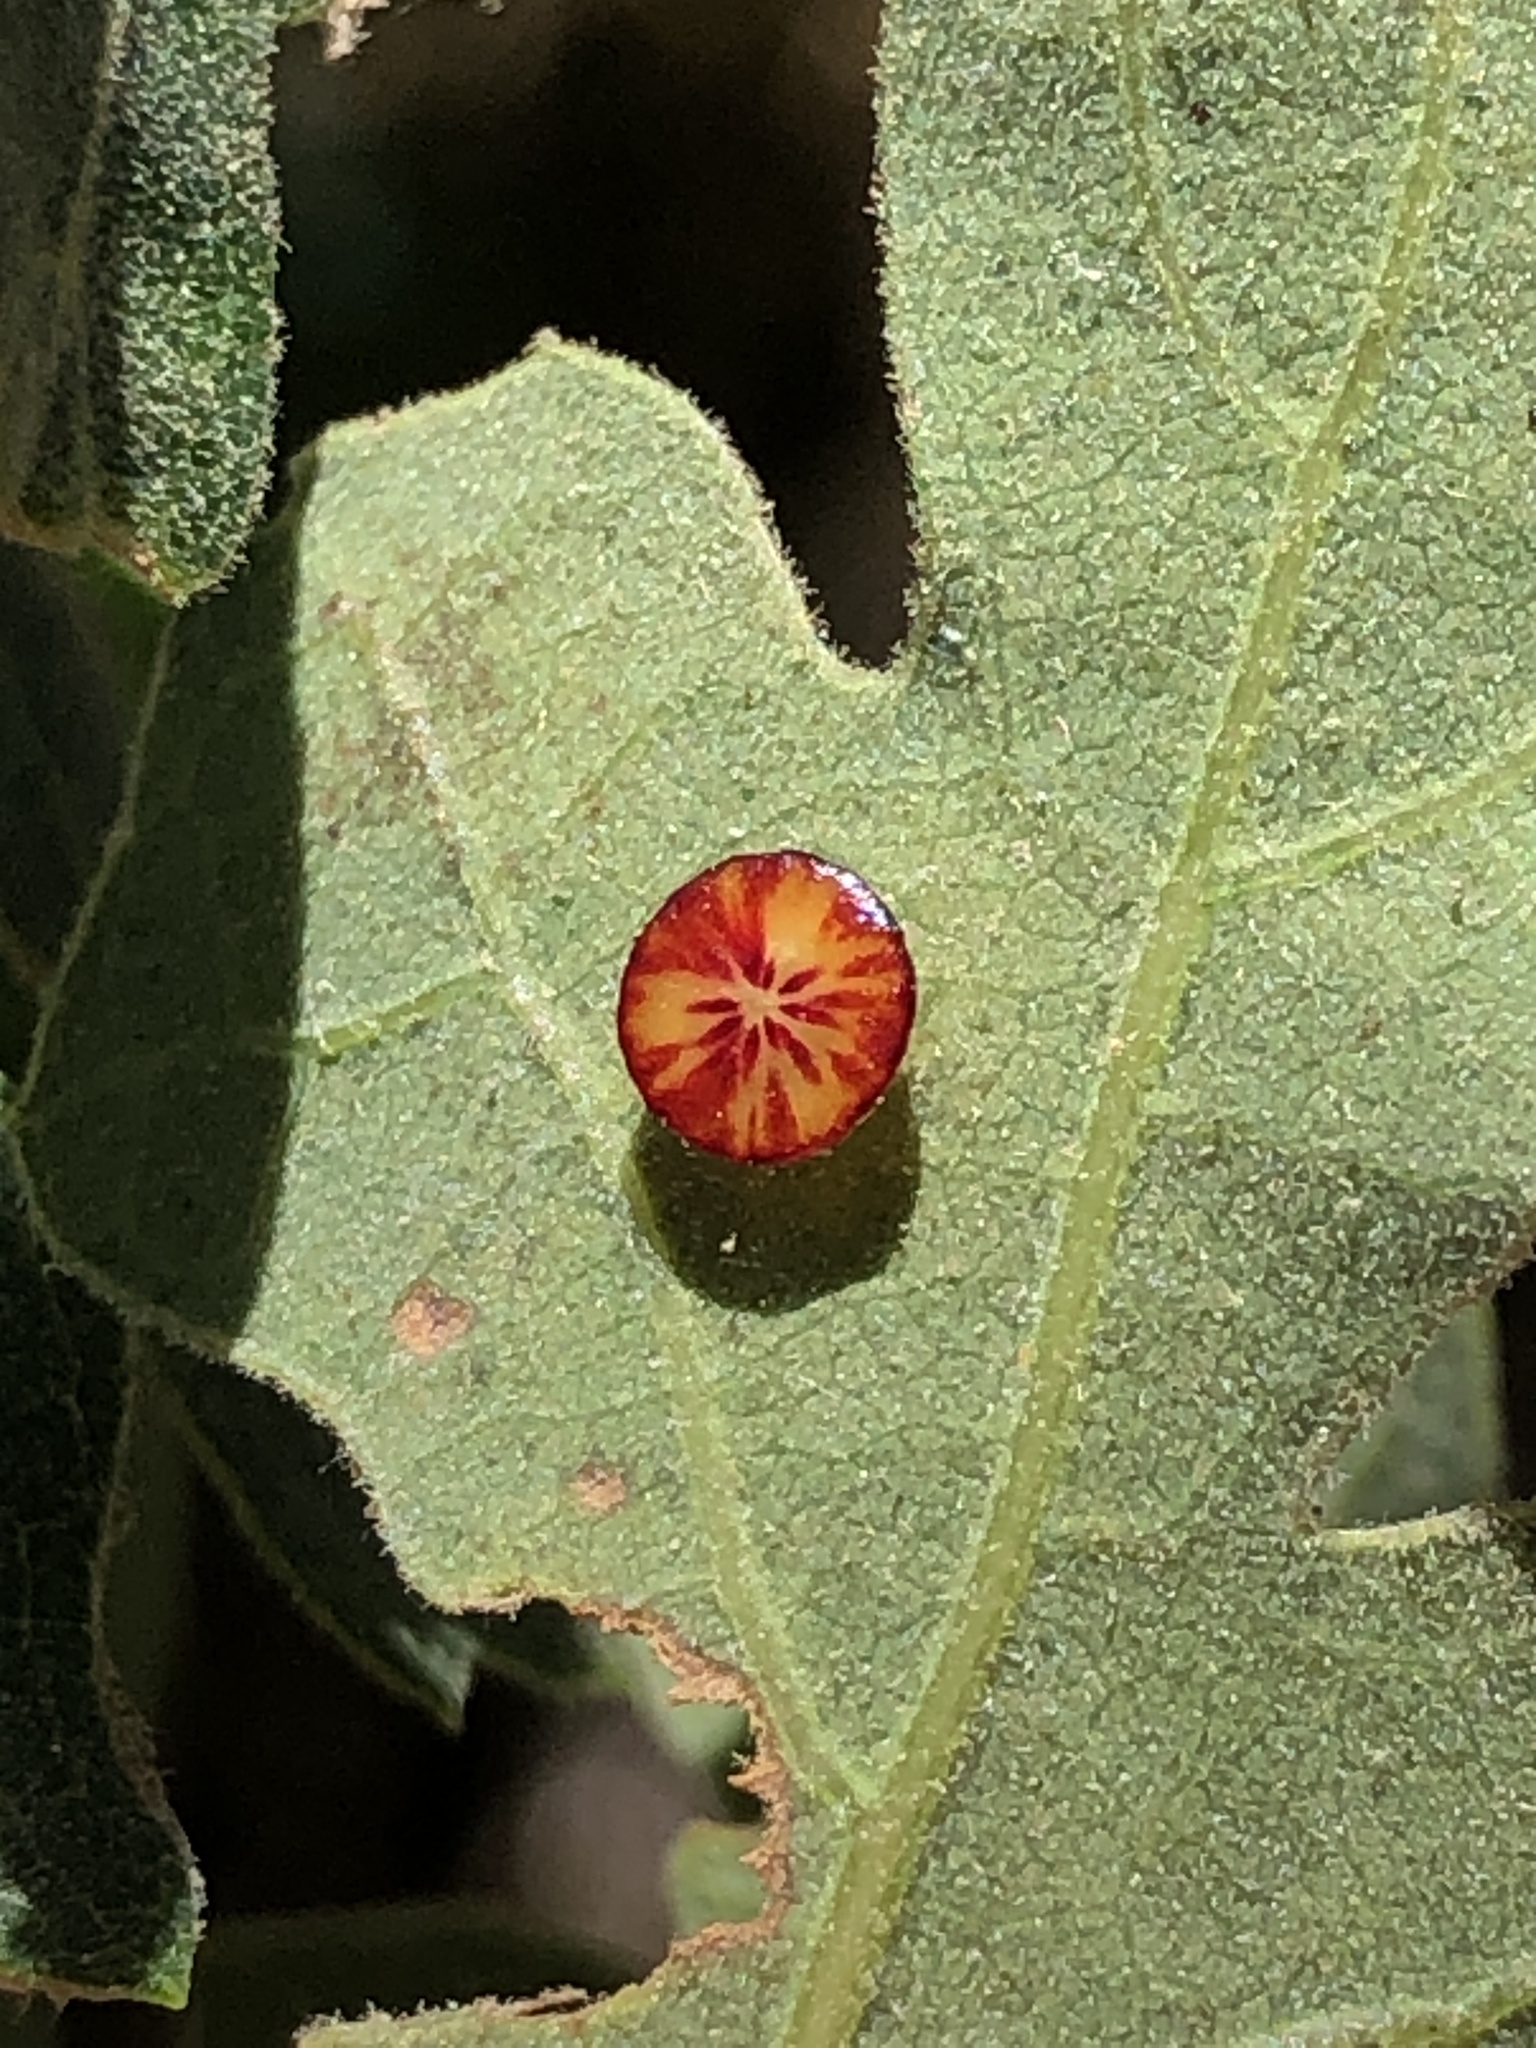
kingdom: Animalia
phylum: Arthropoda
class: Insecta
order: Hymenoptera
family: Cynipidae
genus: Andricus
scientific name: Andricus
